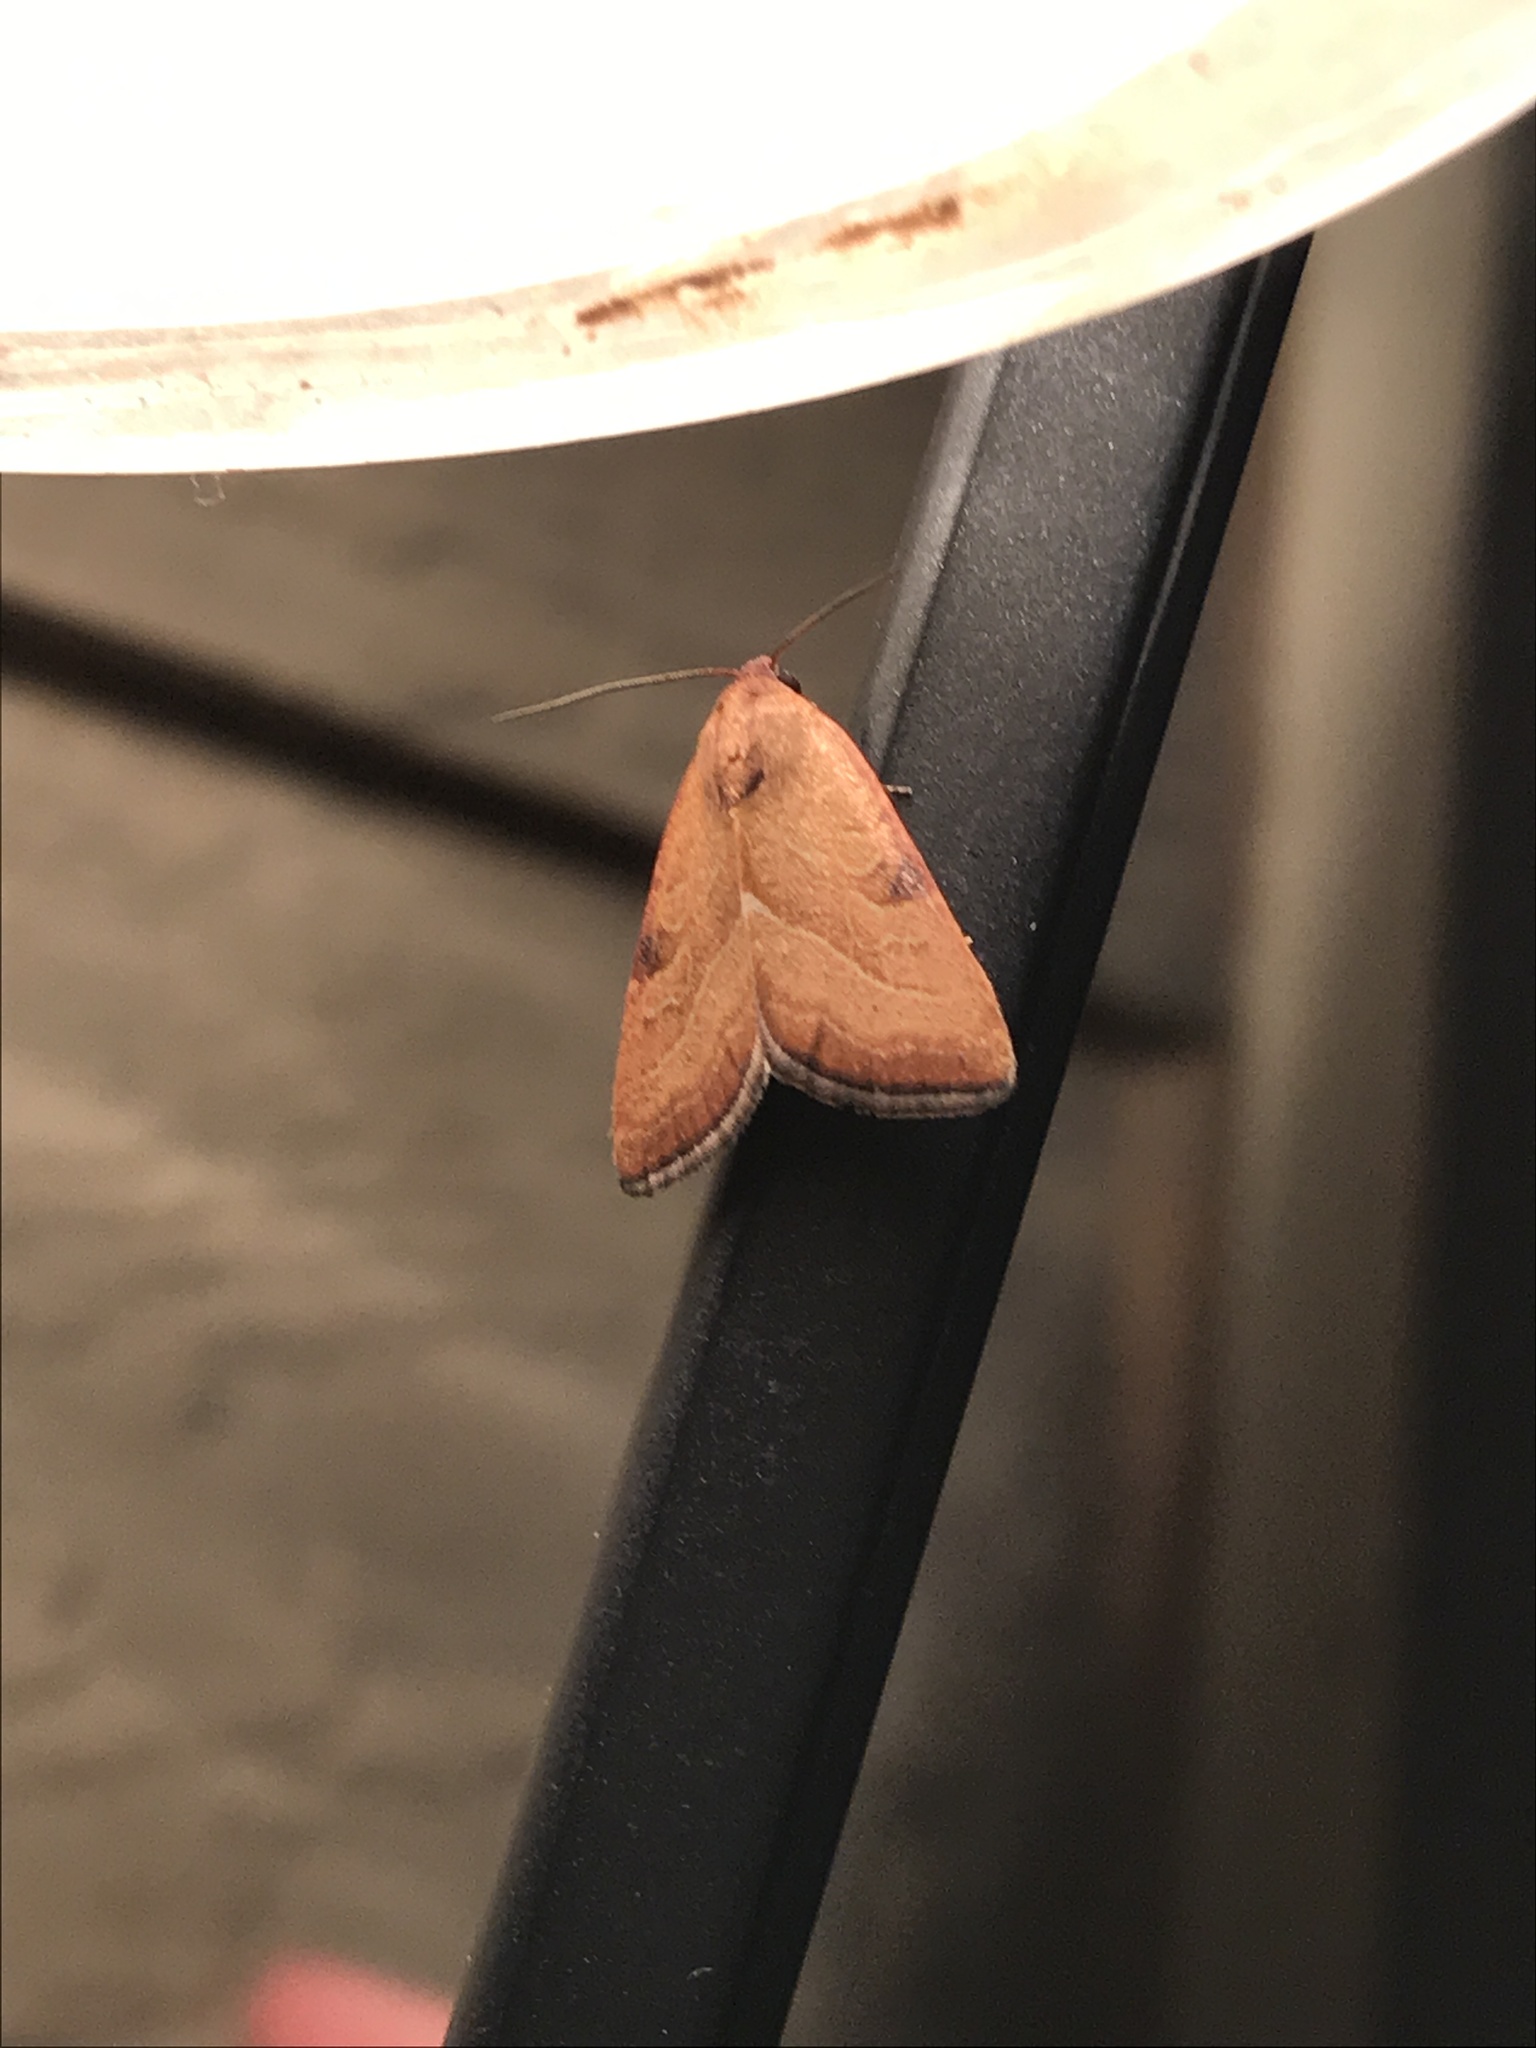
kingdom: Animalia
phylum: Arthropoda
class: Insecta
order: Lepidoptera
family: Noctuidae
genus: Galgula
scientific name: Galgula partita
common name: Wedgeling
